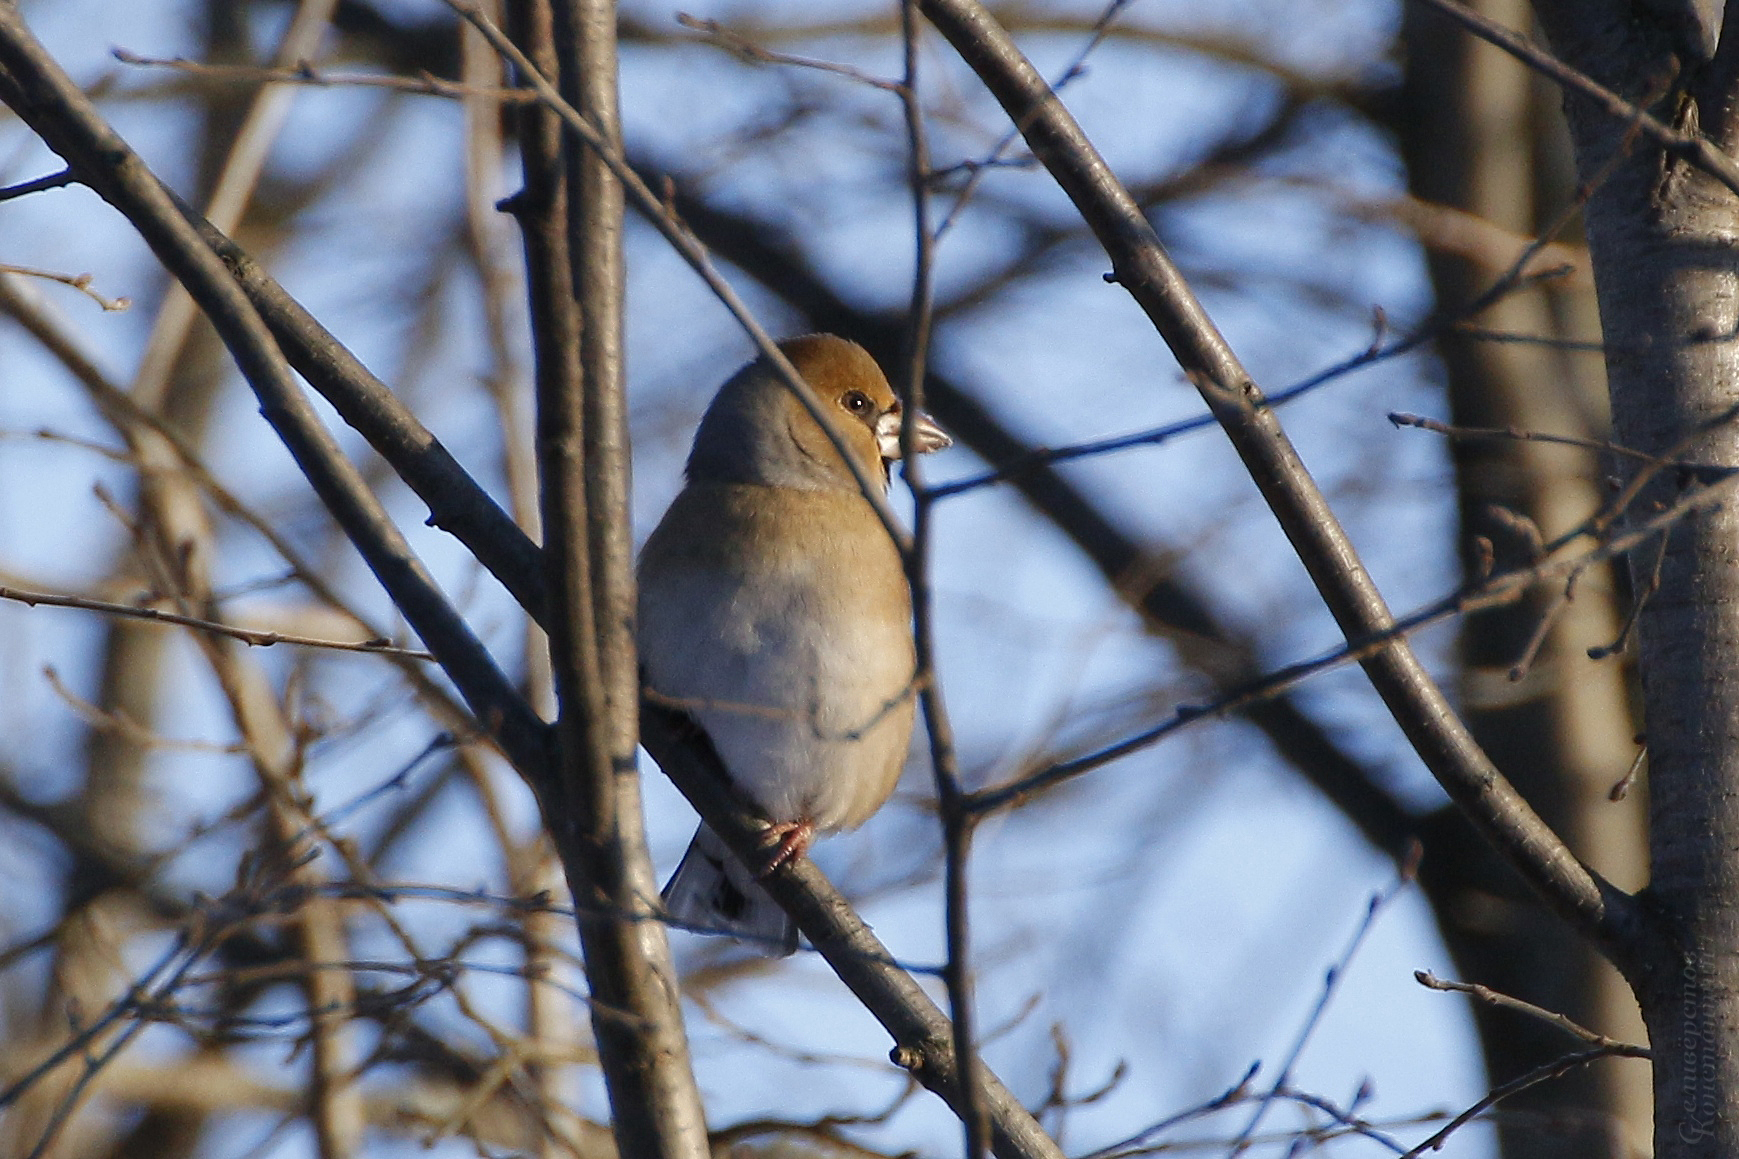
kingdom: Animalia
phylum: Chordata
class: Aves
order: Passeriformes
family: Fringillidae
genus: Coccothraustes
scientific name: Coccothraustes coccothraustes
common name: Hawfinch
